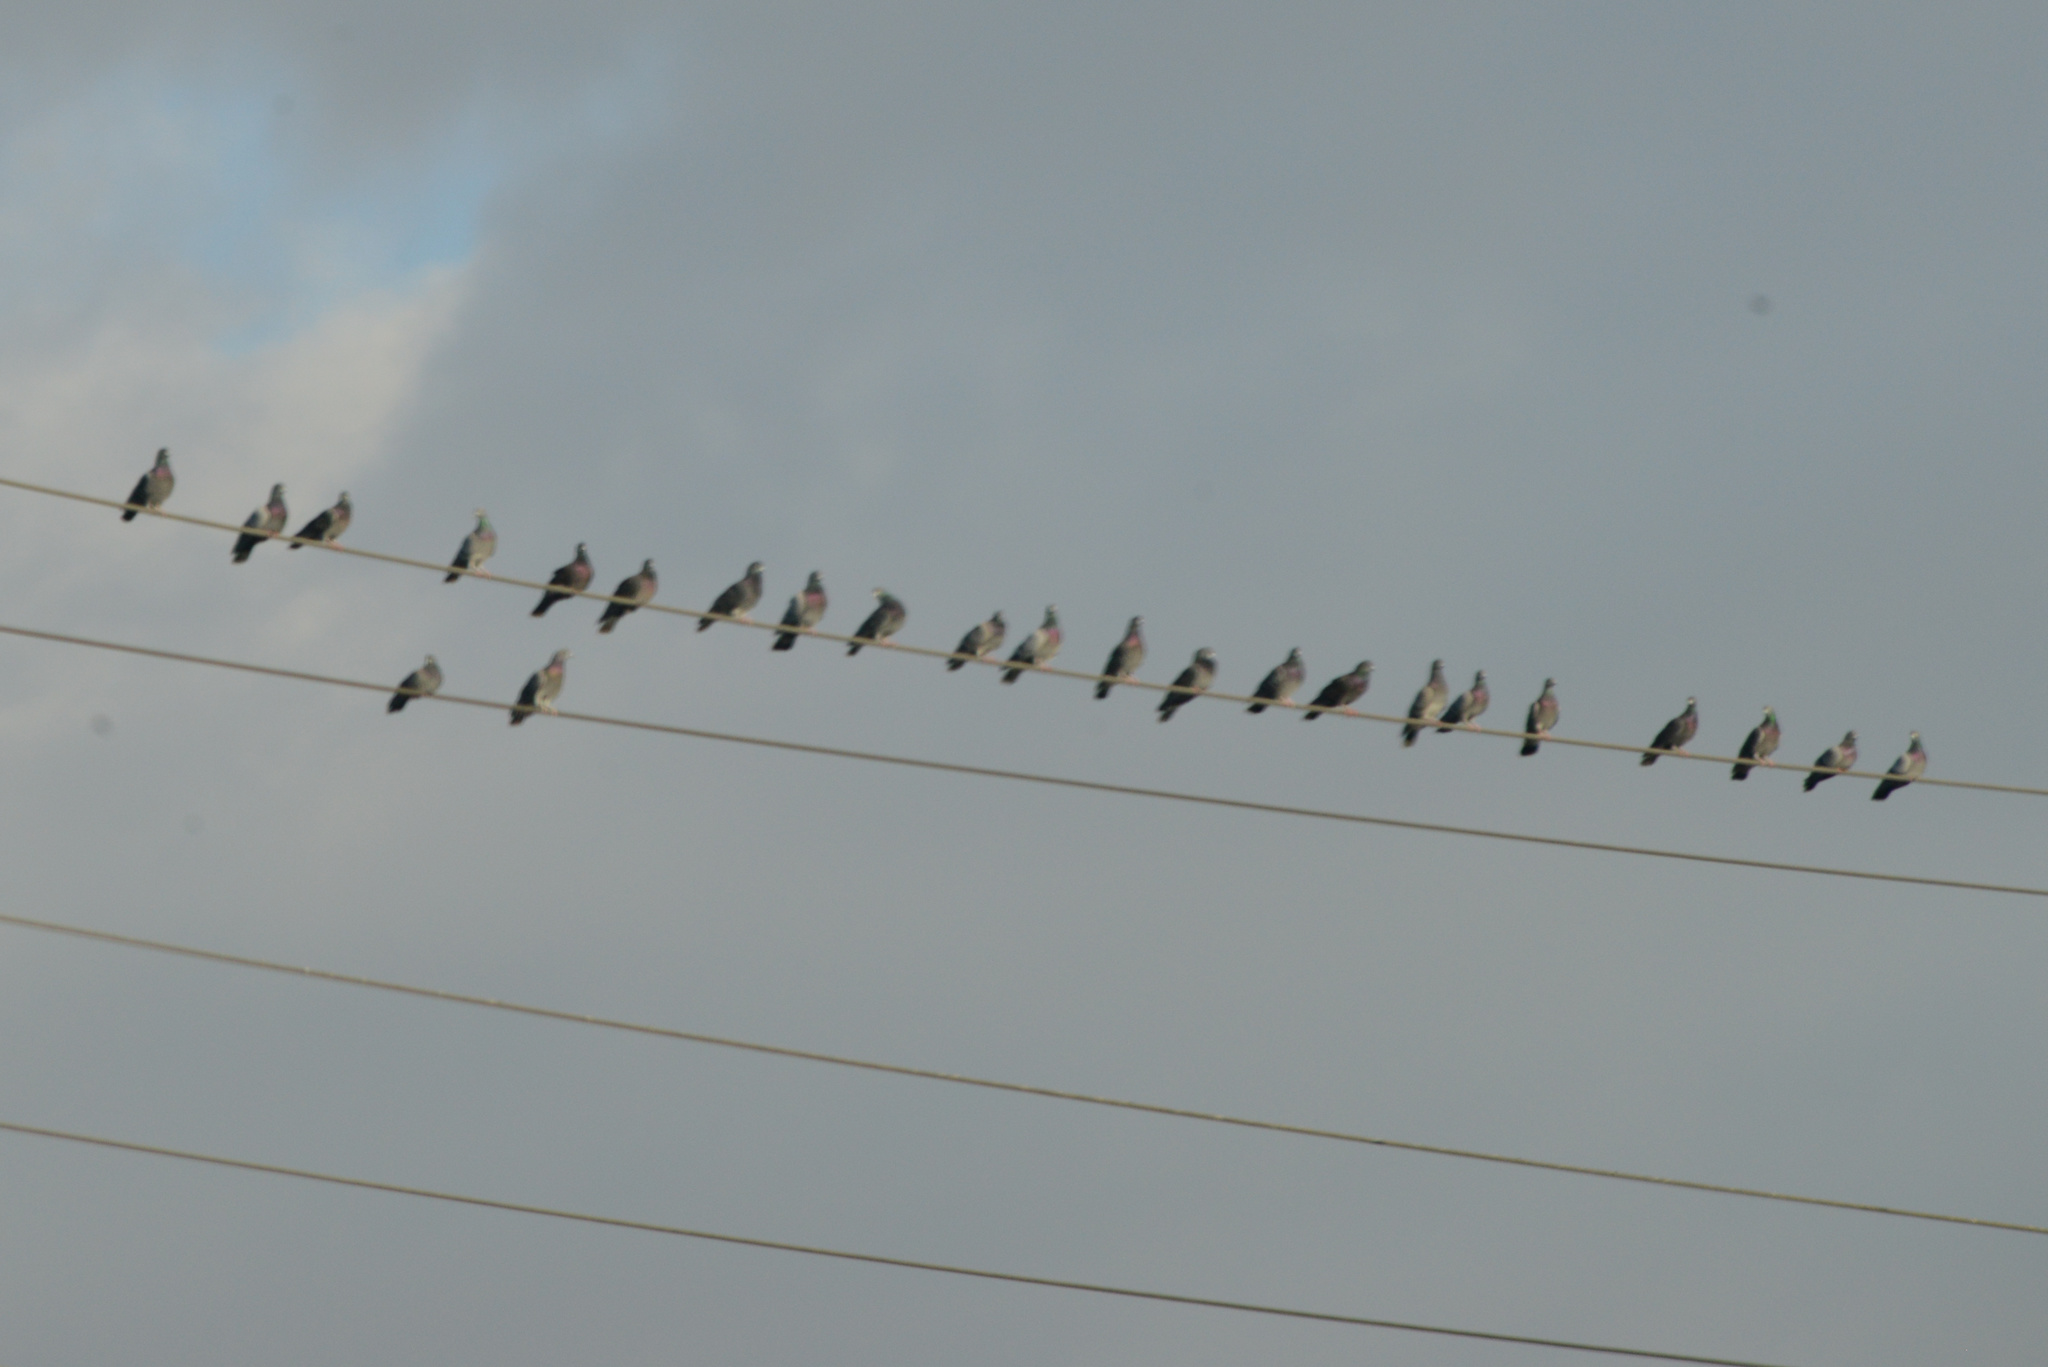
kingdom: Animalia
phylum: Chordata
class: Aves
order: Columbiformes
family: Columbidae
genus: Columba
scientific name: Columba livia
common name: Rock pigeon
